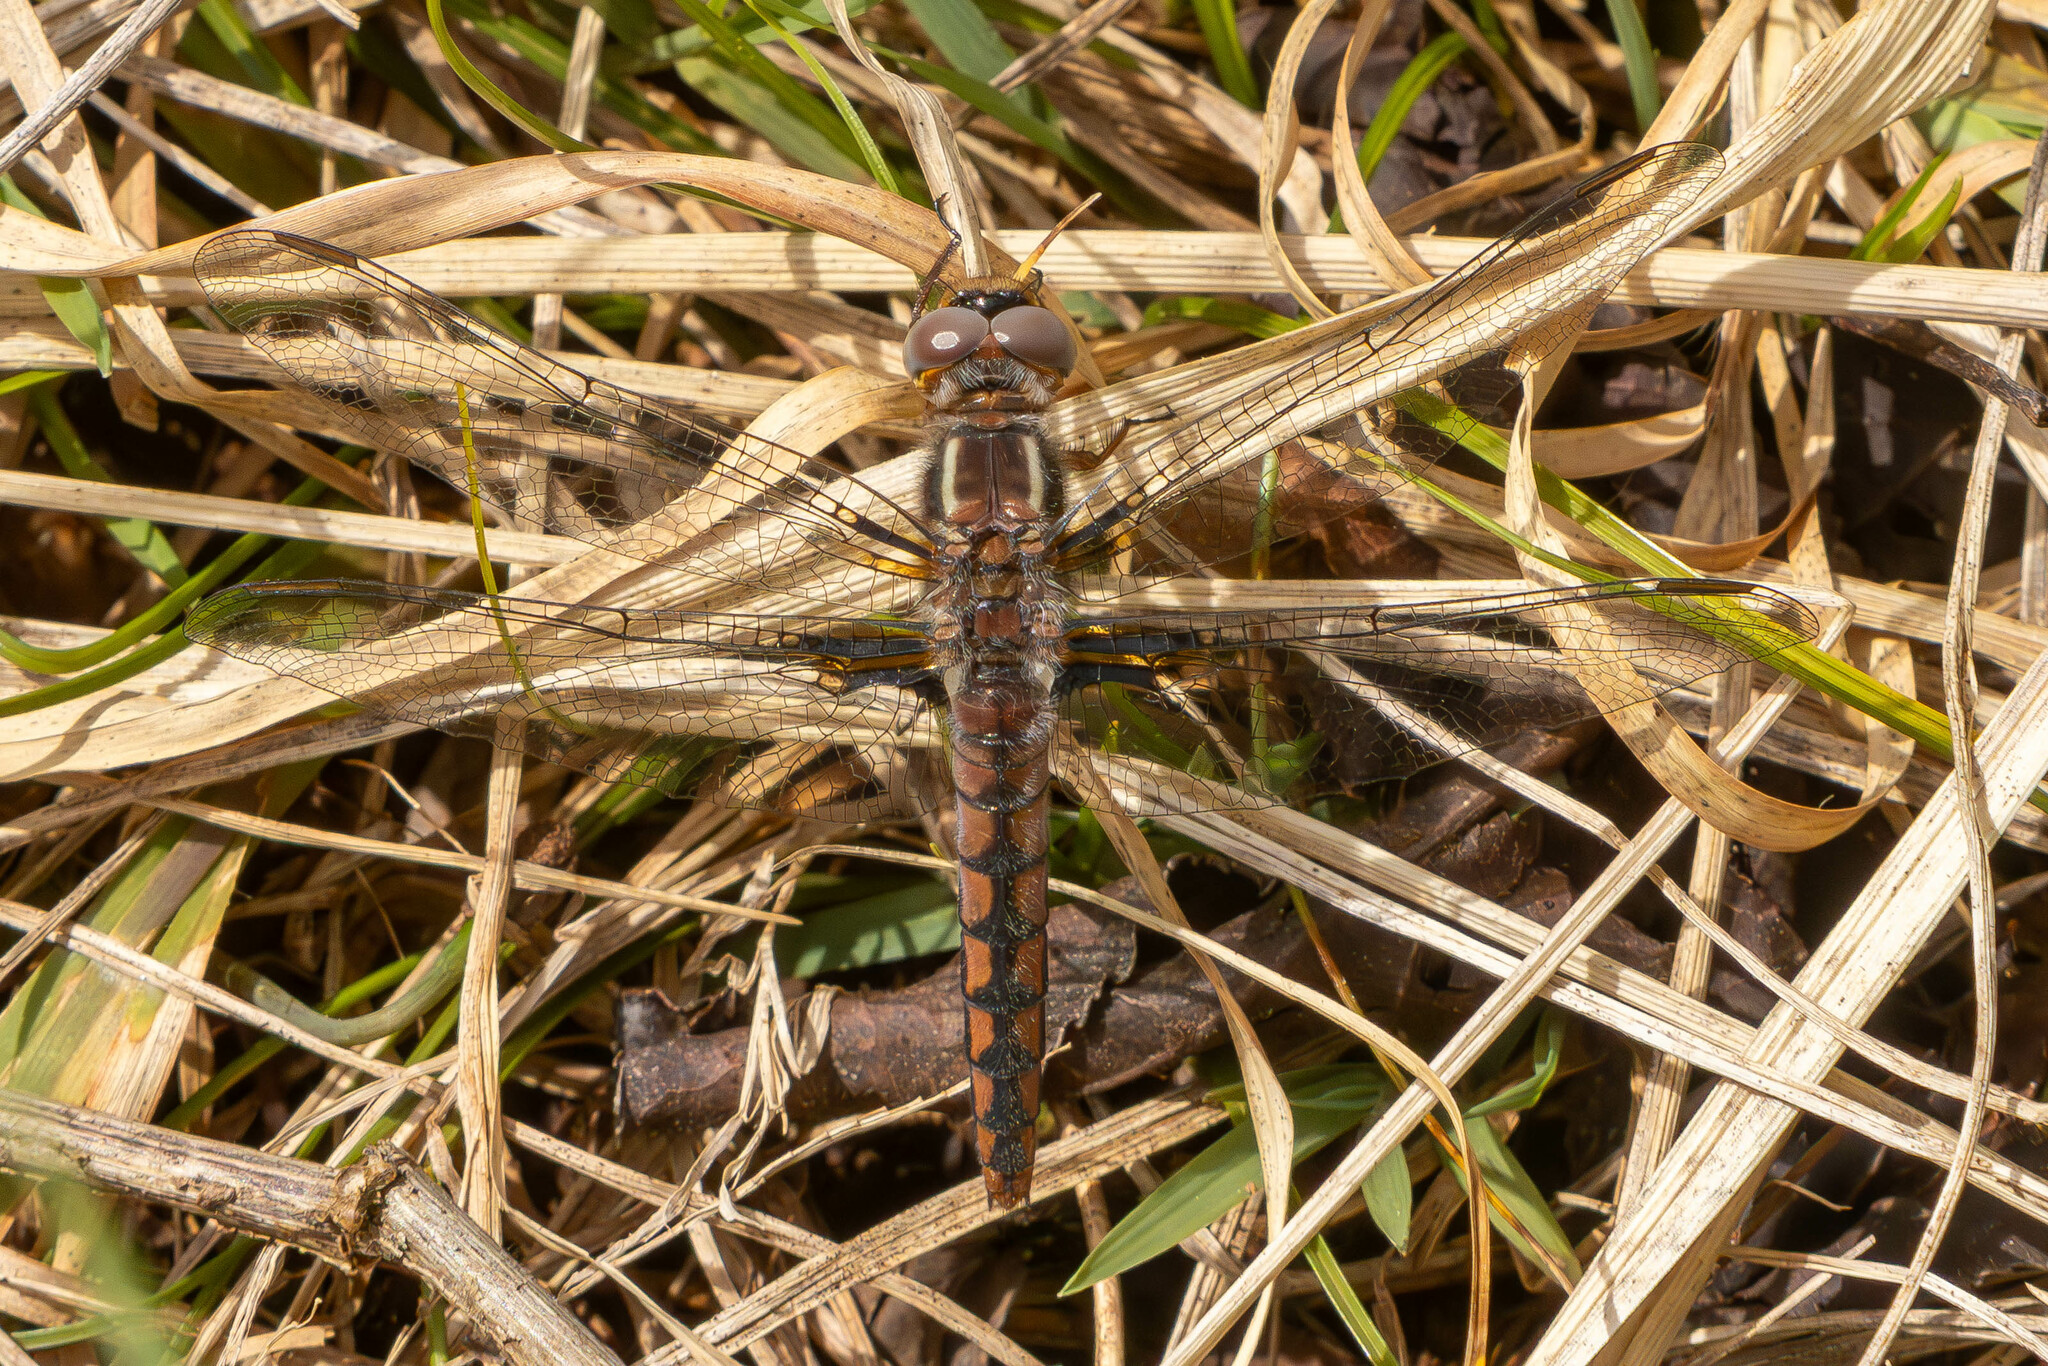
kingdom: Animalia
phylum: Arthropoda
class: Insecta
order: Odonata
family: Libellulidae
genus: Ladona
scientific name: Ladona deplanata
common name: Blue corporal
